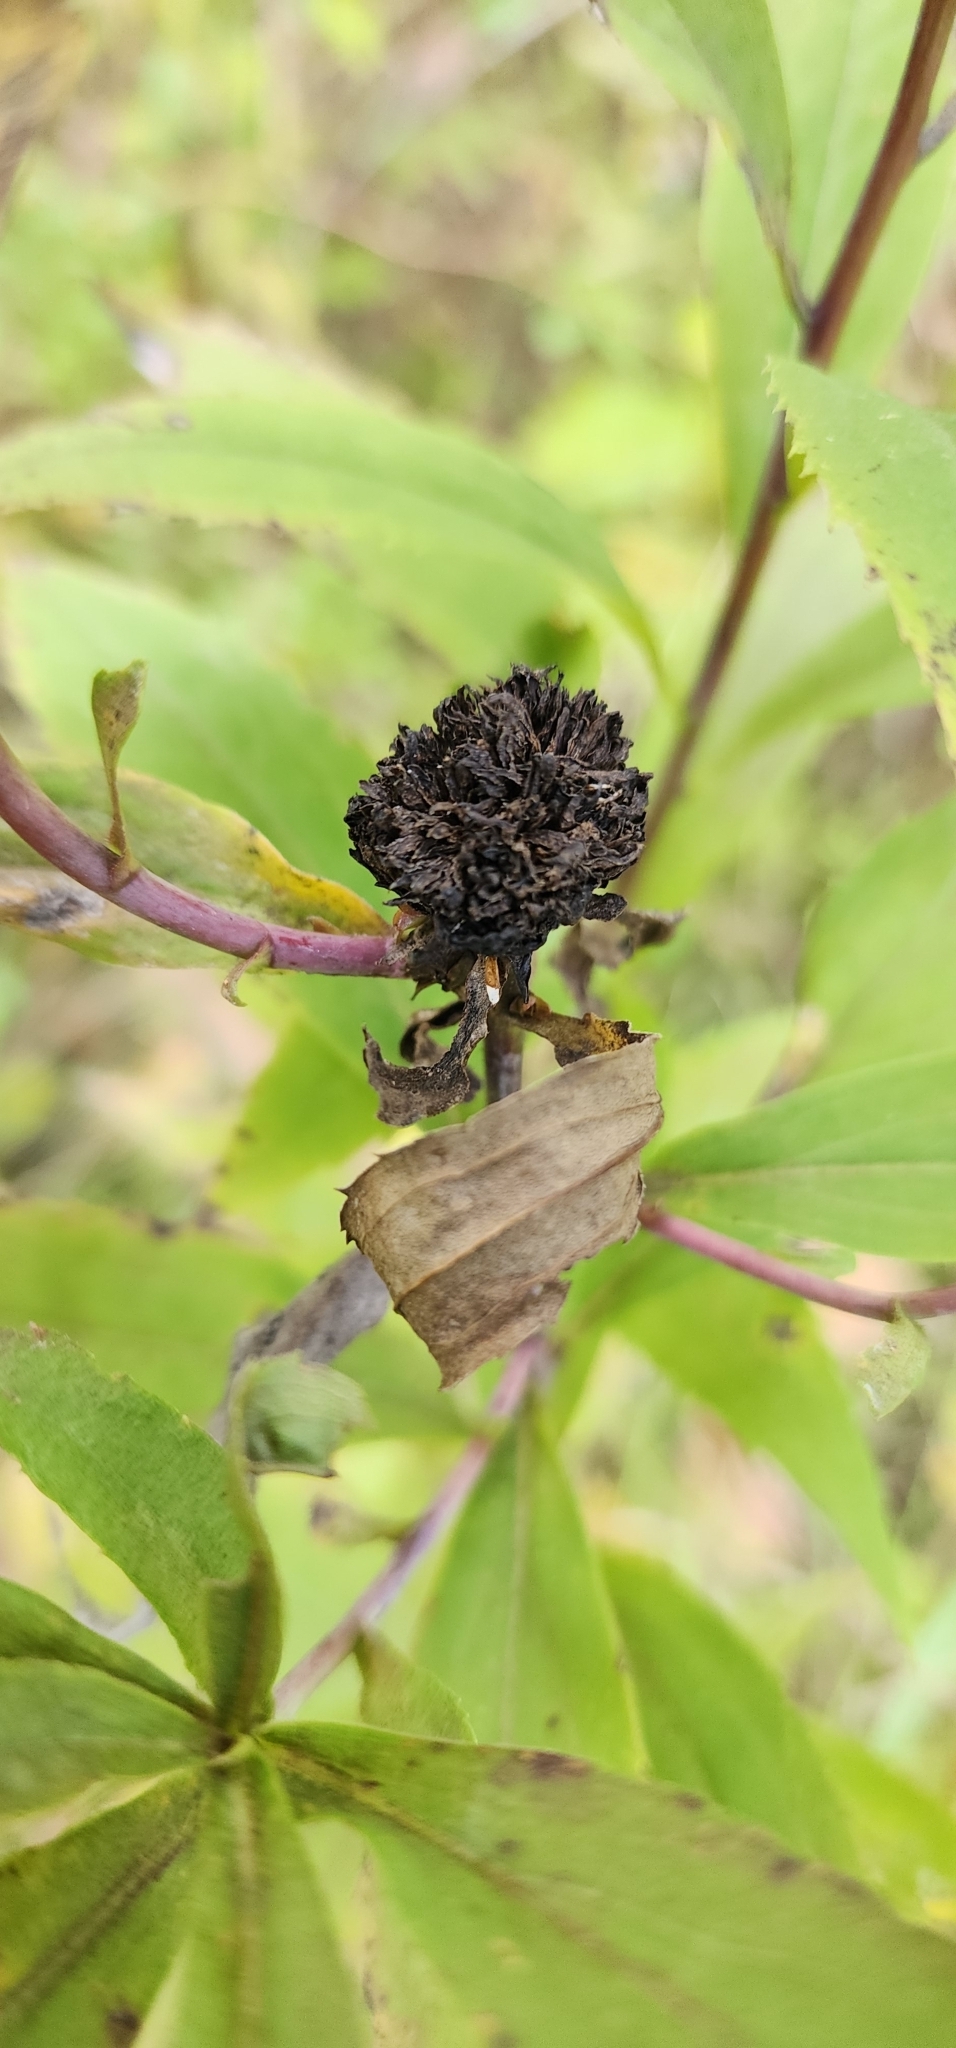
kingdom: Animalia
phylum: Arthropoda
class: Insecta
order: Diptera
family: Cecidomyiidae
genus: Rhopalomyia
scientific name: Rhopalomyia capitata
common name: Giant goldenrod bunch gall midge
